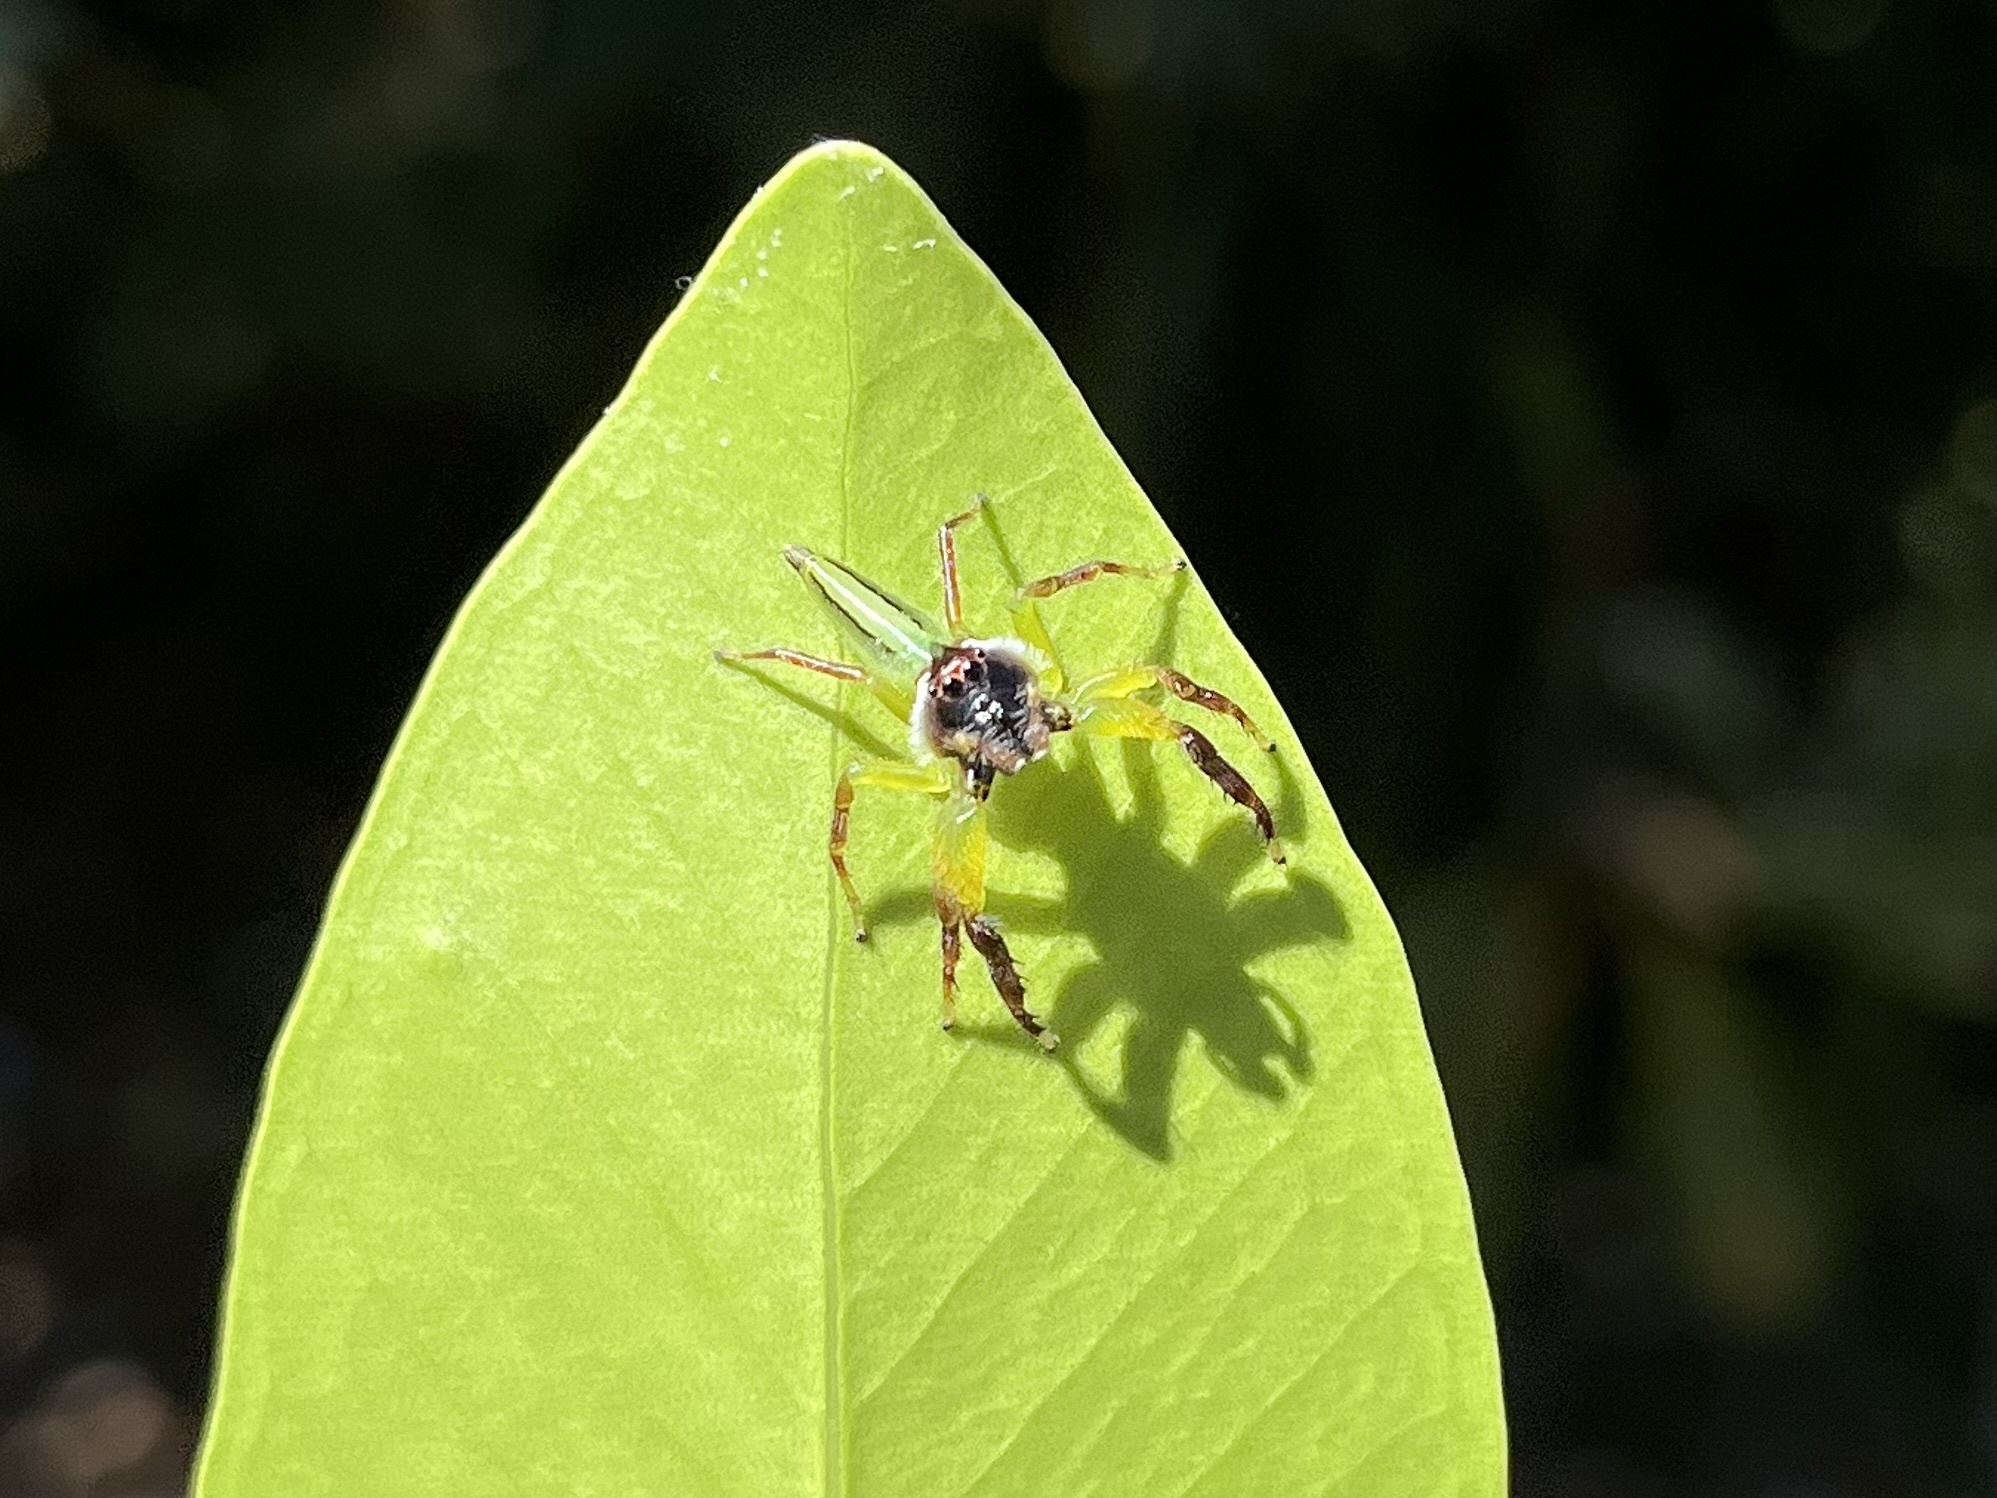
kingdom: Animalia
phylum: Arthropoda
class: Arachnida
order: Araneae
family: Salticidae
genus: Mopsus
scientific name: Mopsus mormon
